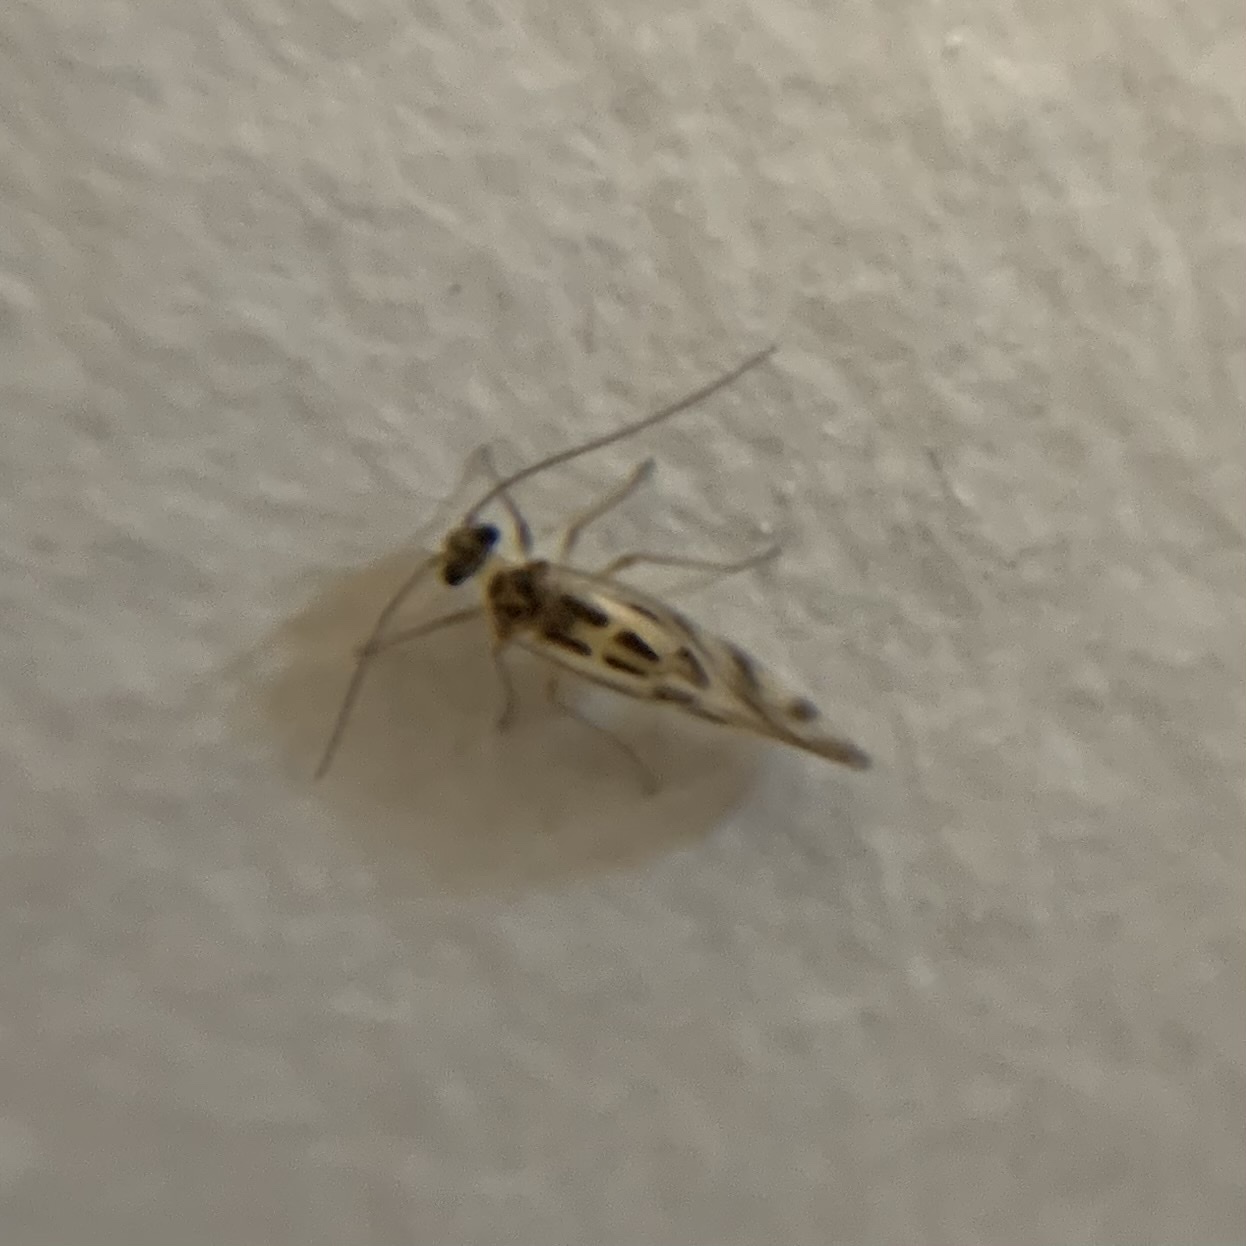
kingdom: Animalia
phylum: Arthropoda
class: Insecta
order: Psocodea
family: Stenopsocidae
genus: Graphopsocus
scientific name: Graphopsocus cruciatus
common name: Lizard bark louse
